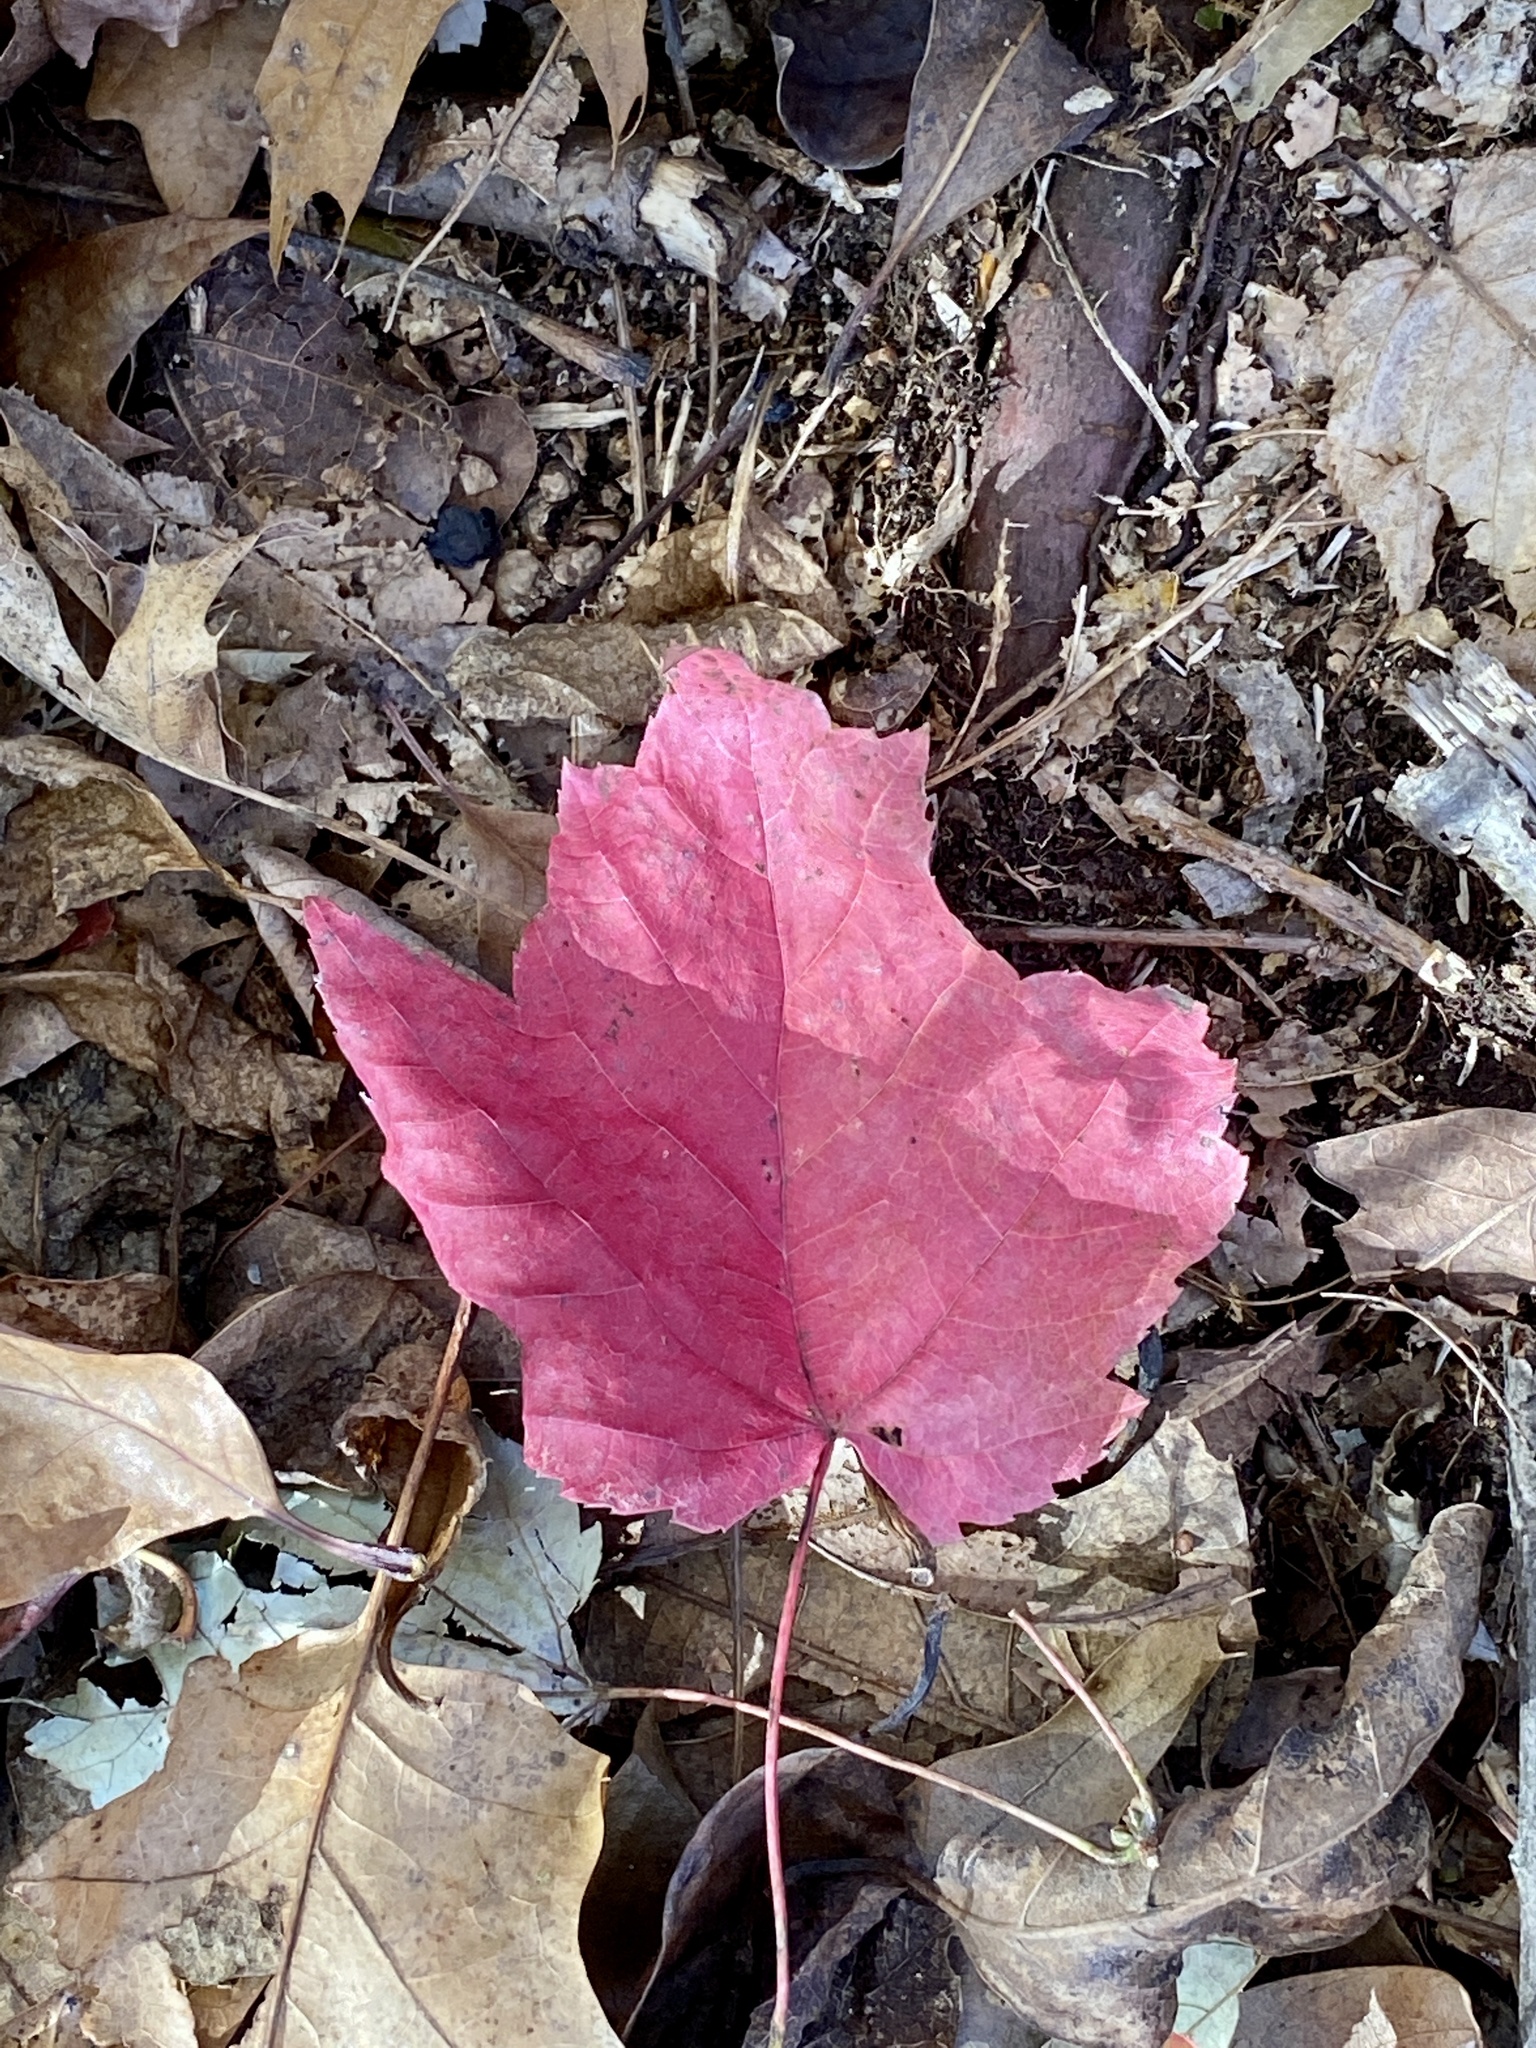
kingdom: Plantae
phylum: Tracheophyta
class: Magnoliopsida
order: Sapindales
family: Sapindaceae
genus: Acer
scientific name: Acer rubrum
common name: Red maple
